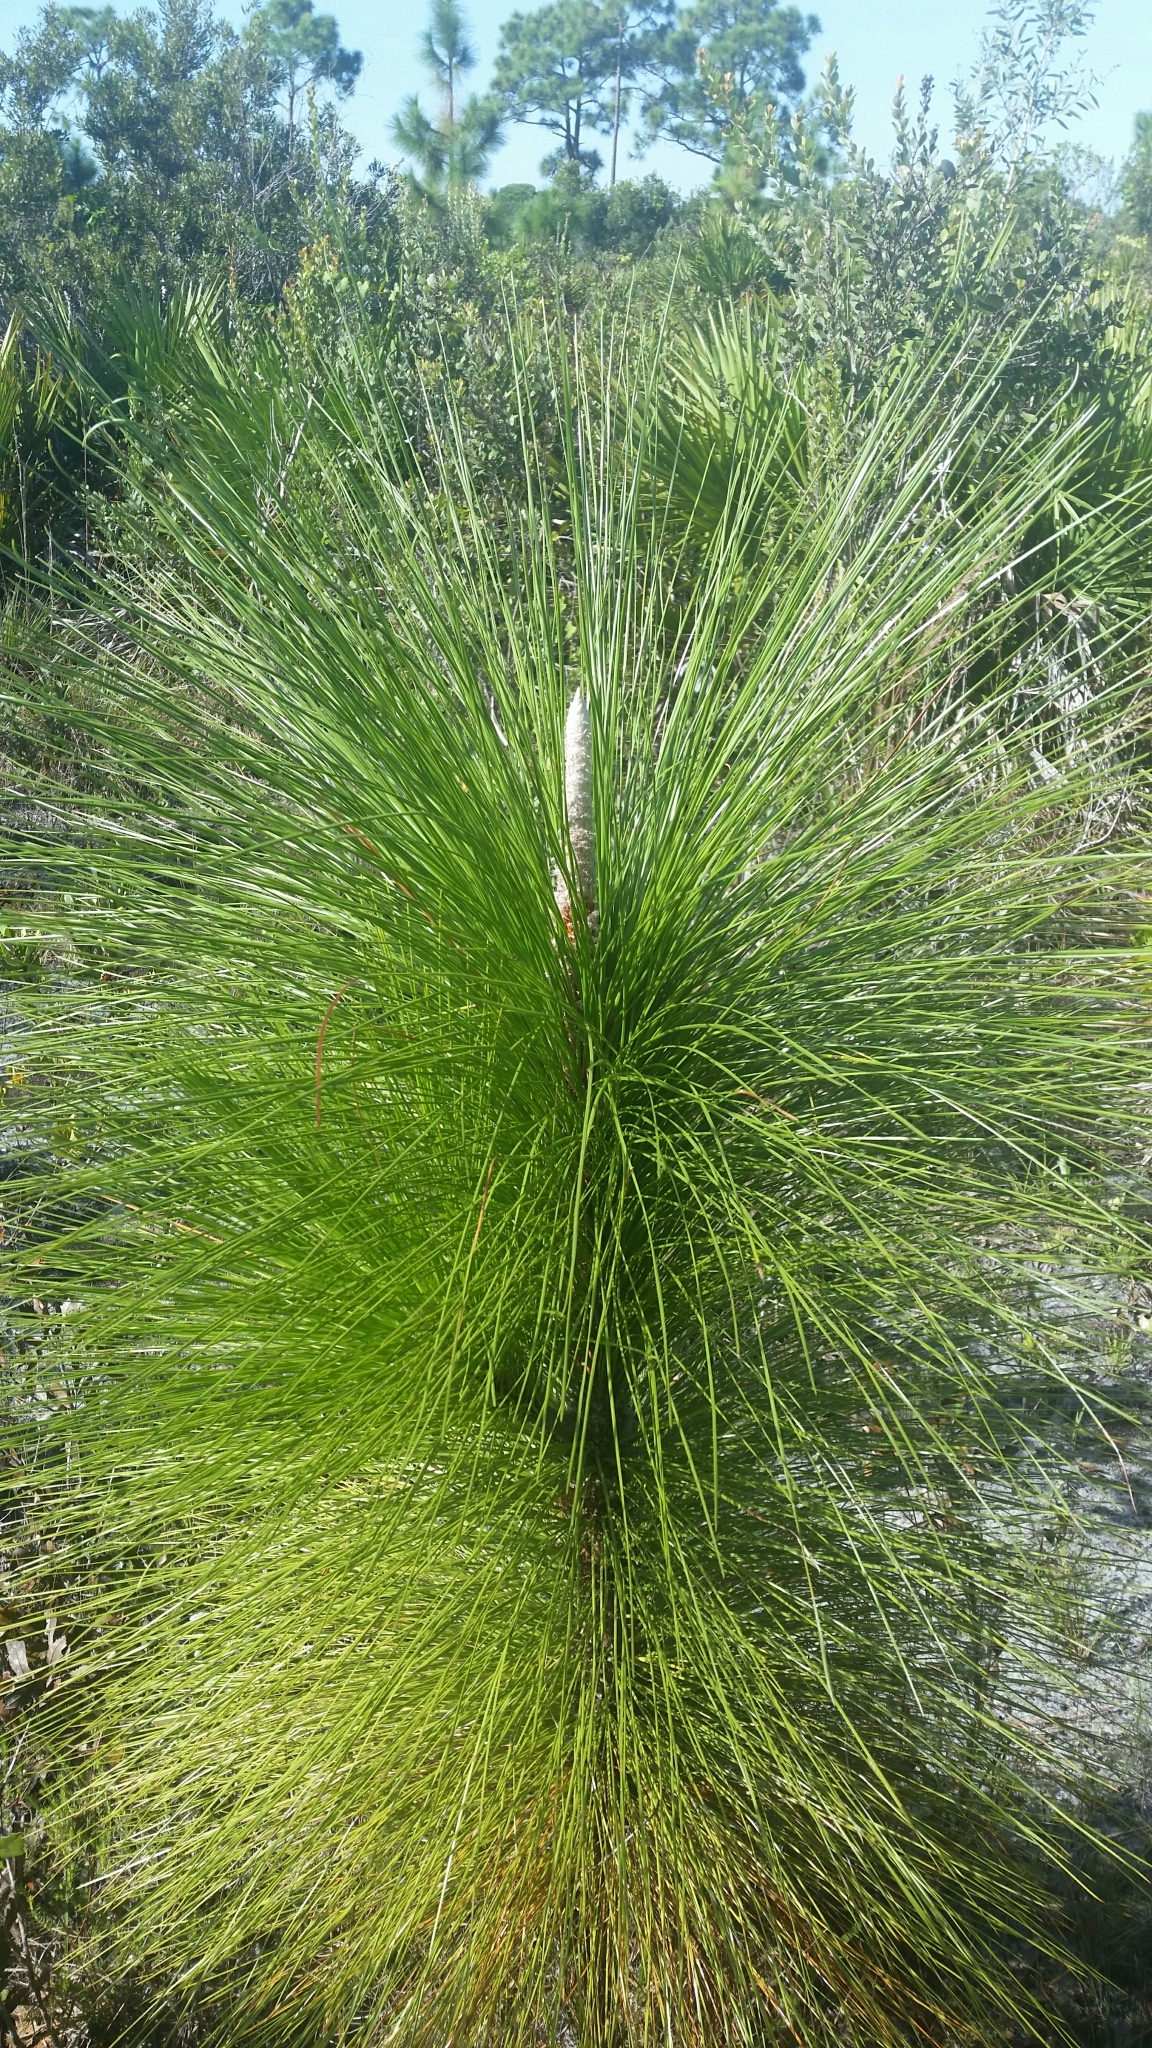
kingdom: Plantae
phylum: Tracheophyta
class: Pinopsida
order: Pinales
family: Pinaceae
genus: Pinus
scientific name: Pinus palustris
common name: Longleaf pine
